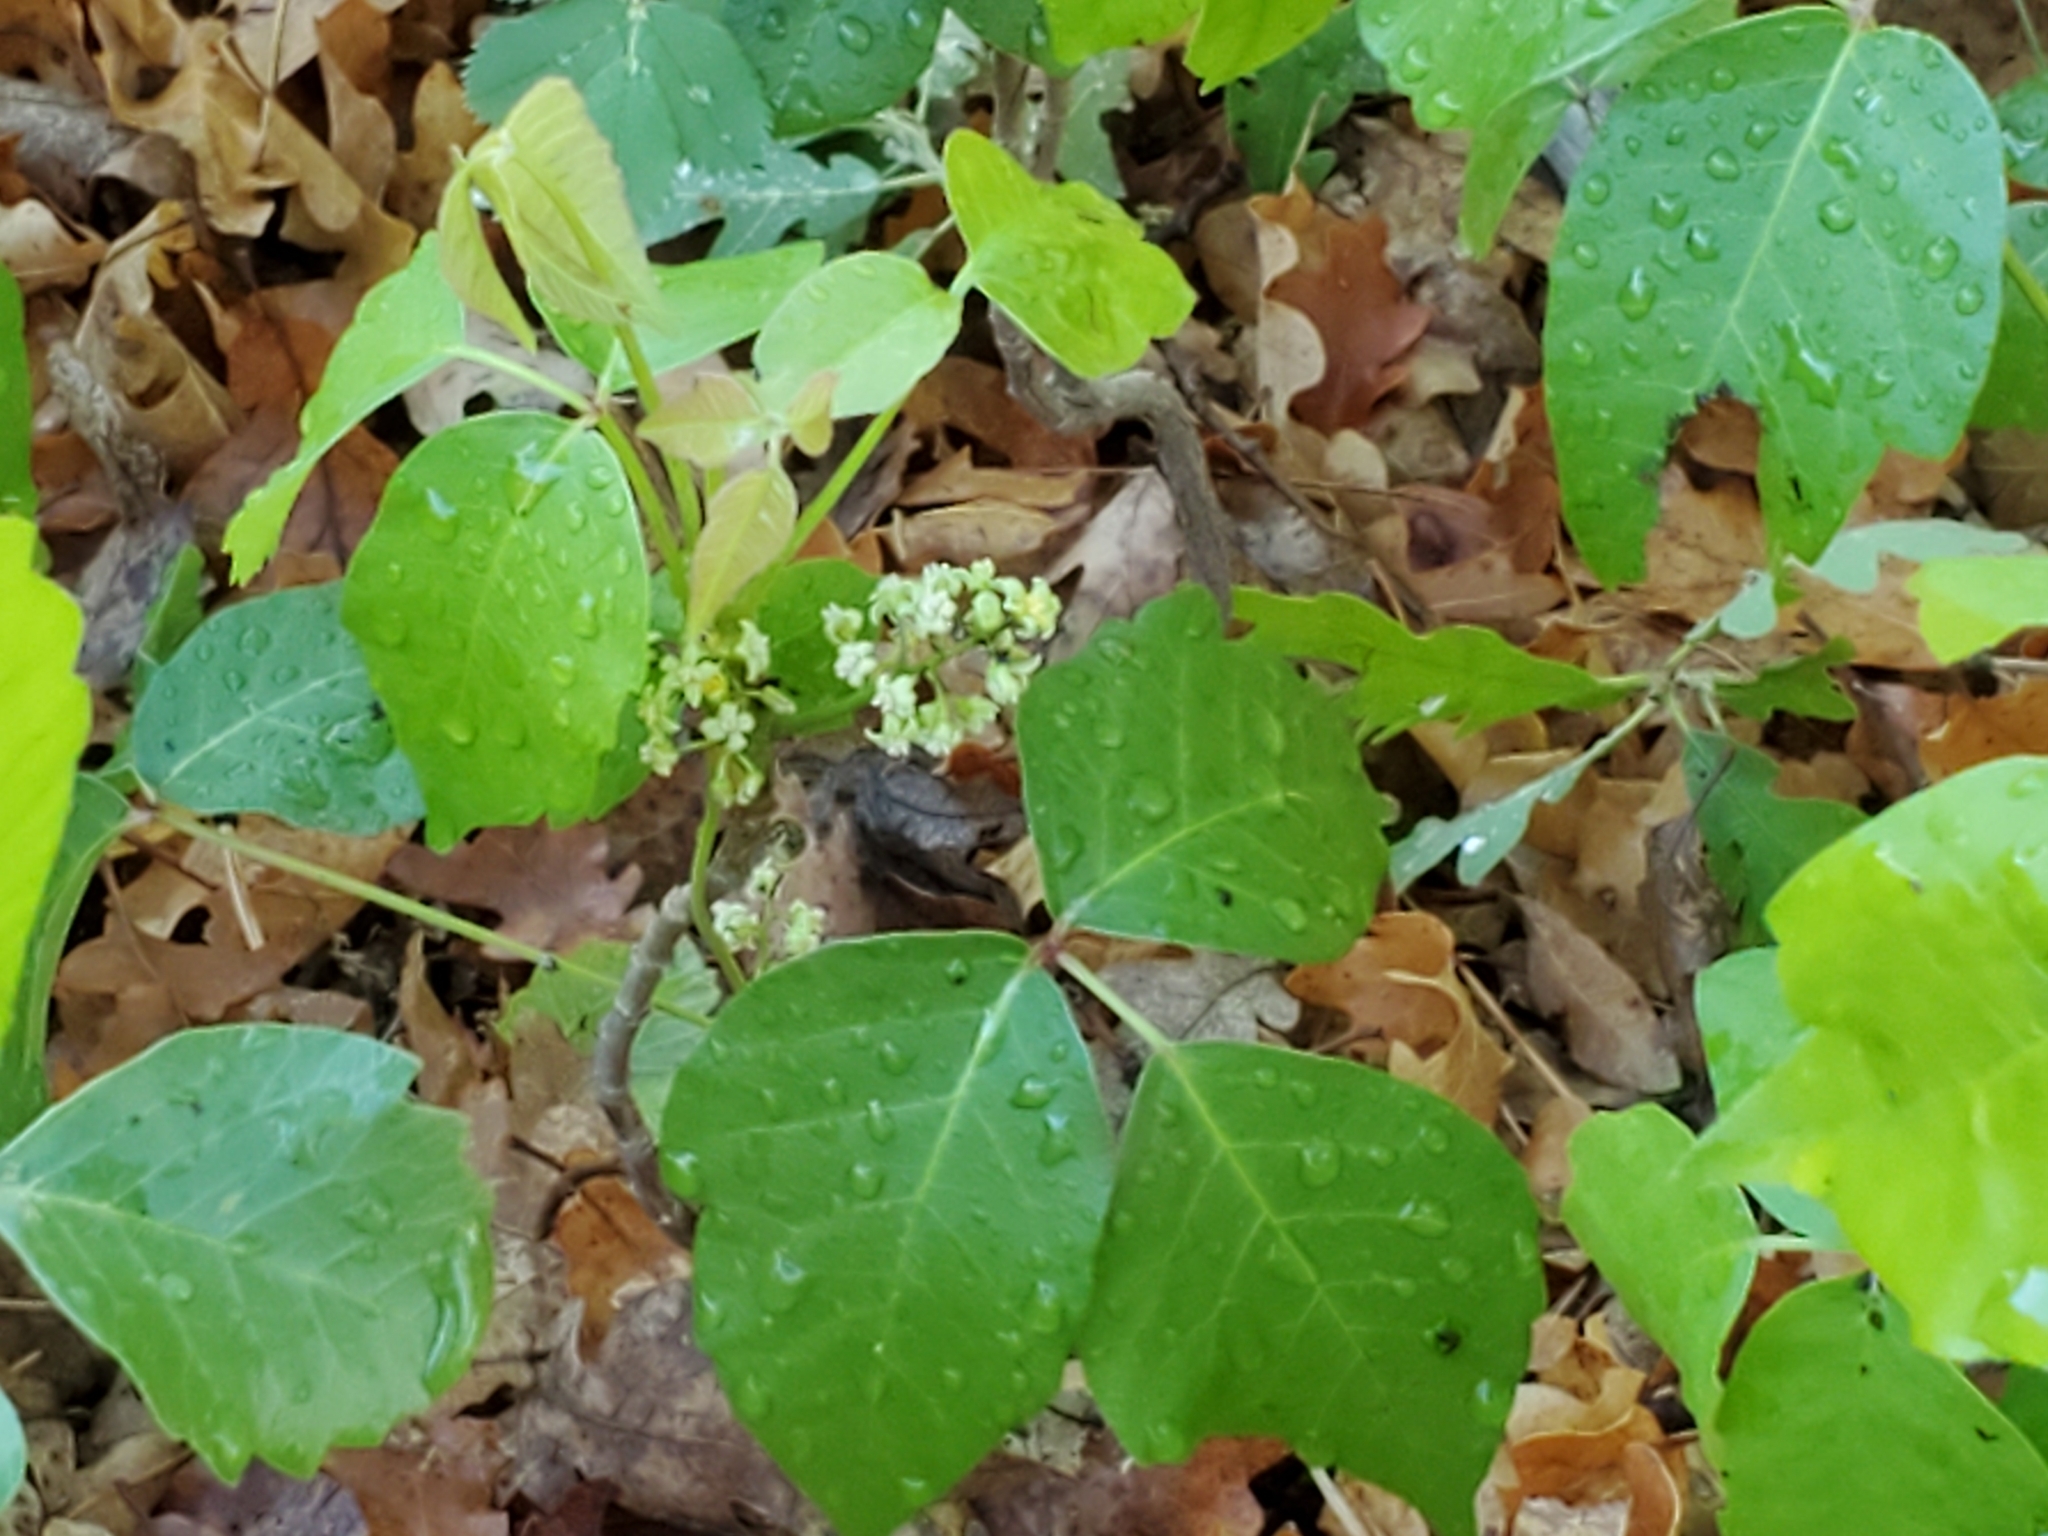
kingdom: Plantae
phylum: Tracheophyta
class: Magnoliopsida
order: Sapindales
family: Anacardiaceae
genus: Toxicodendron
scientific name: Toxicodendron rydbergii
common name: Rydberg's poison-ivy
